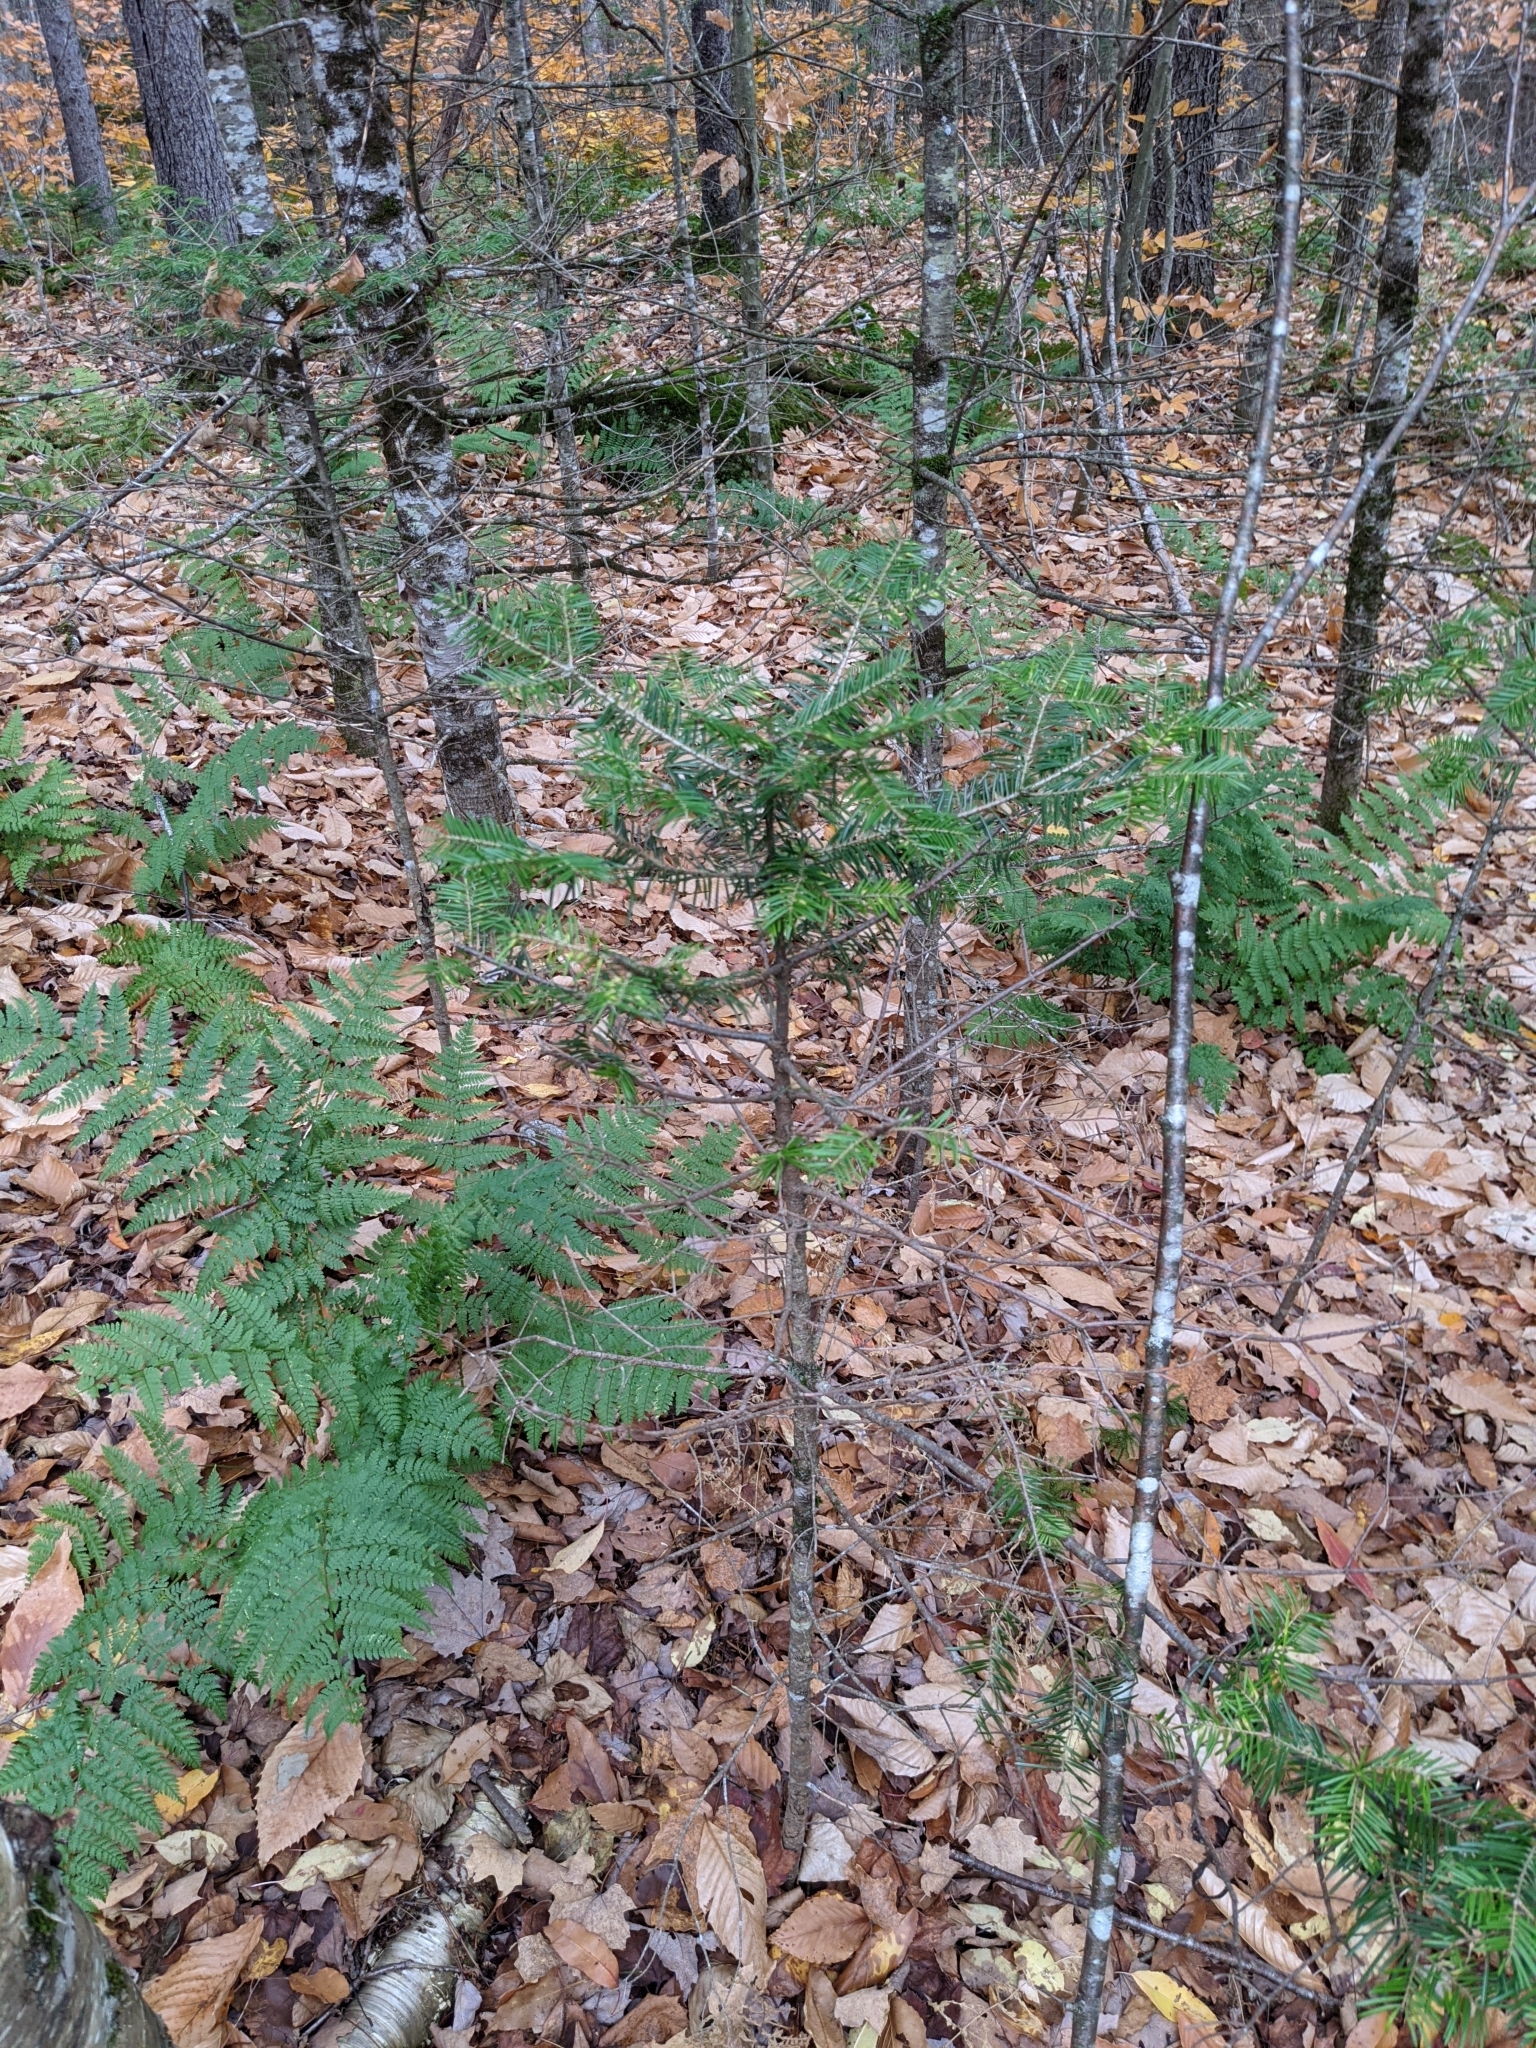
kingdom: Plantae
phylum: Tracheophyta
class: Pinopsida
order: Pinales
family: Pinaceae
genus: Abies
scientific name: Abies balsamea
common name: Balsam fir
